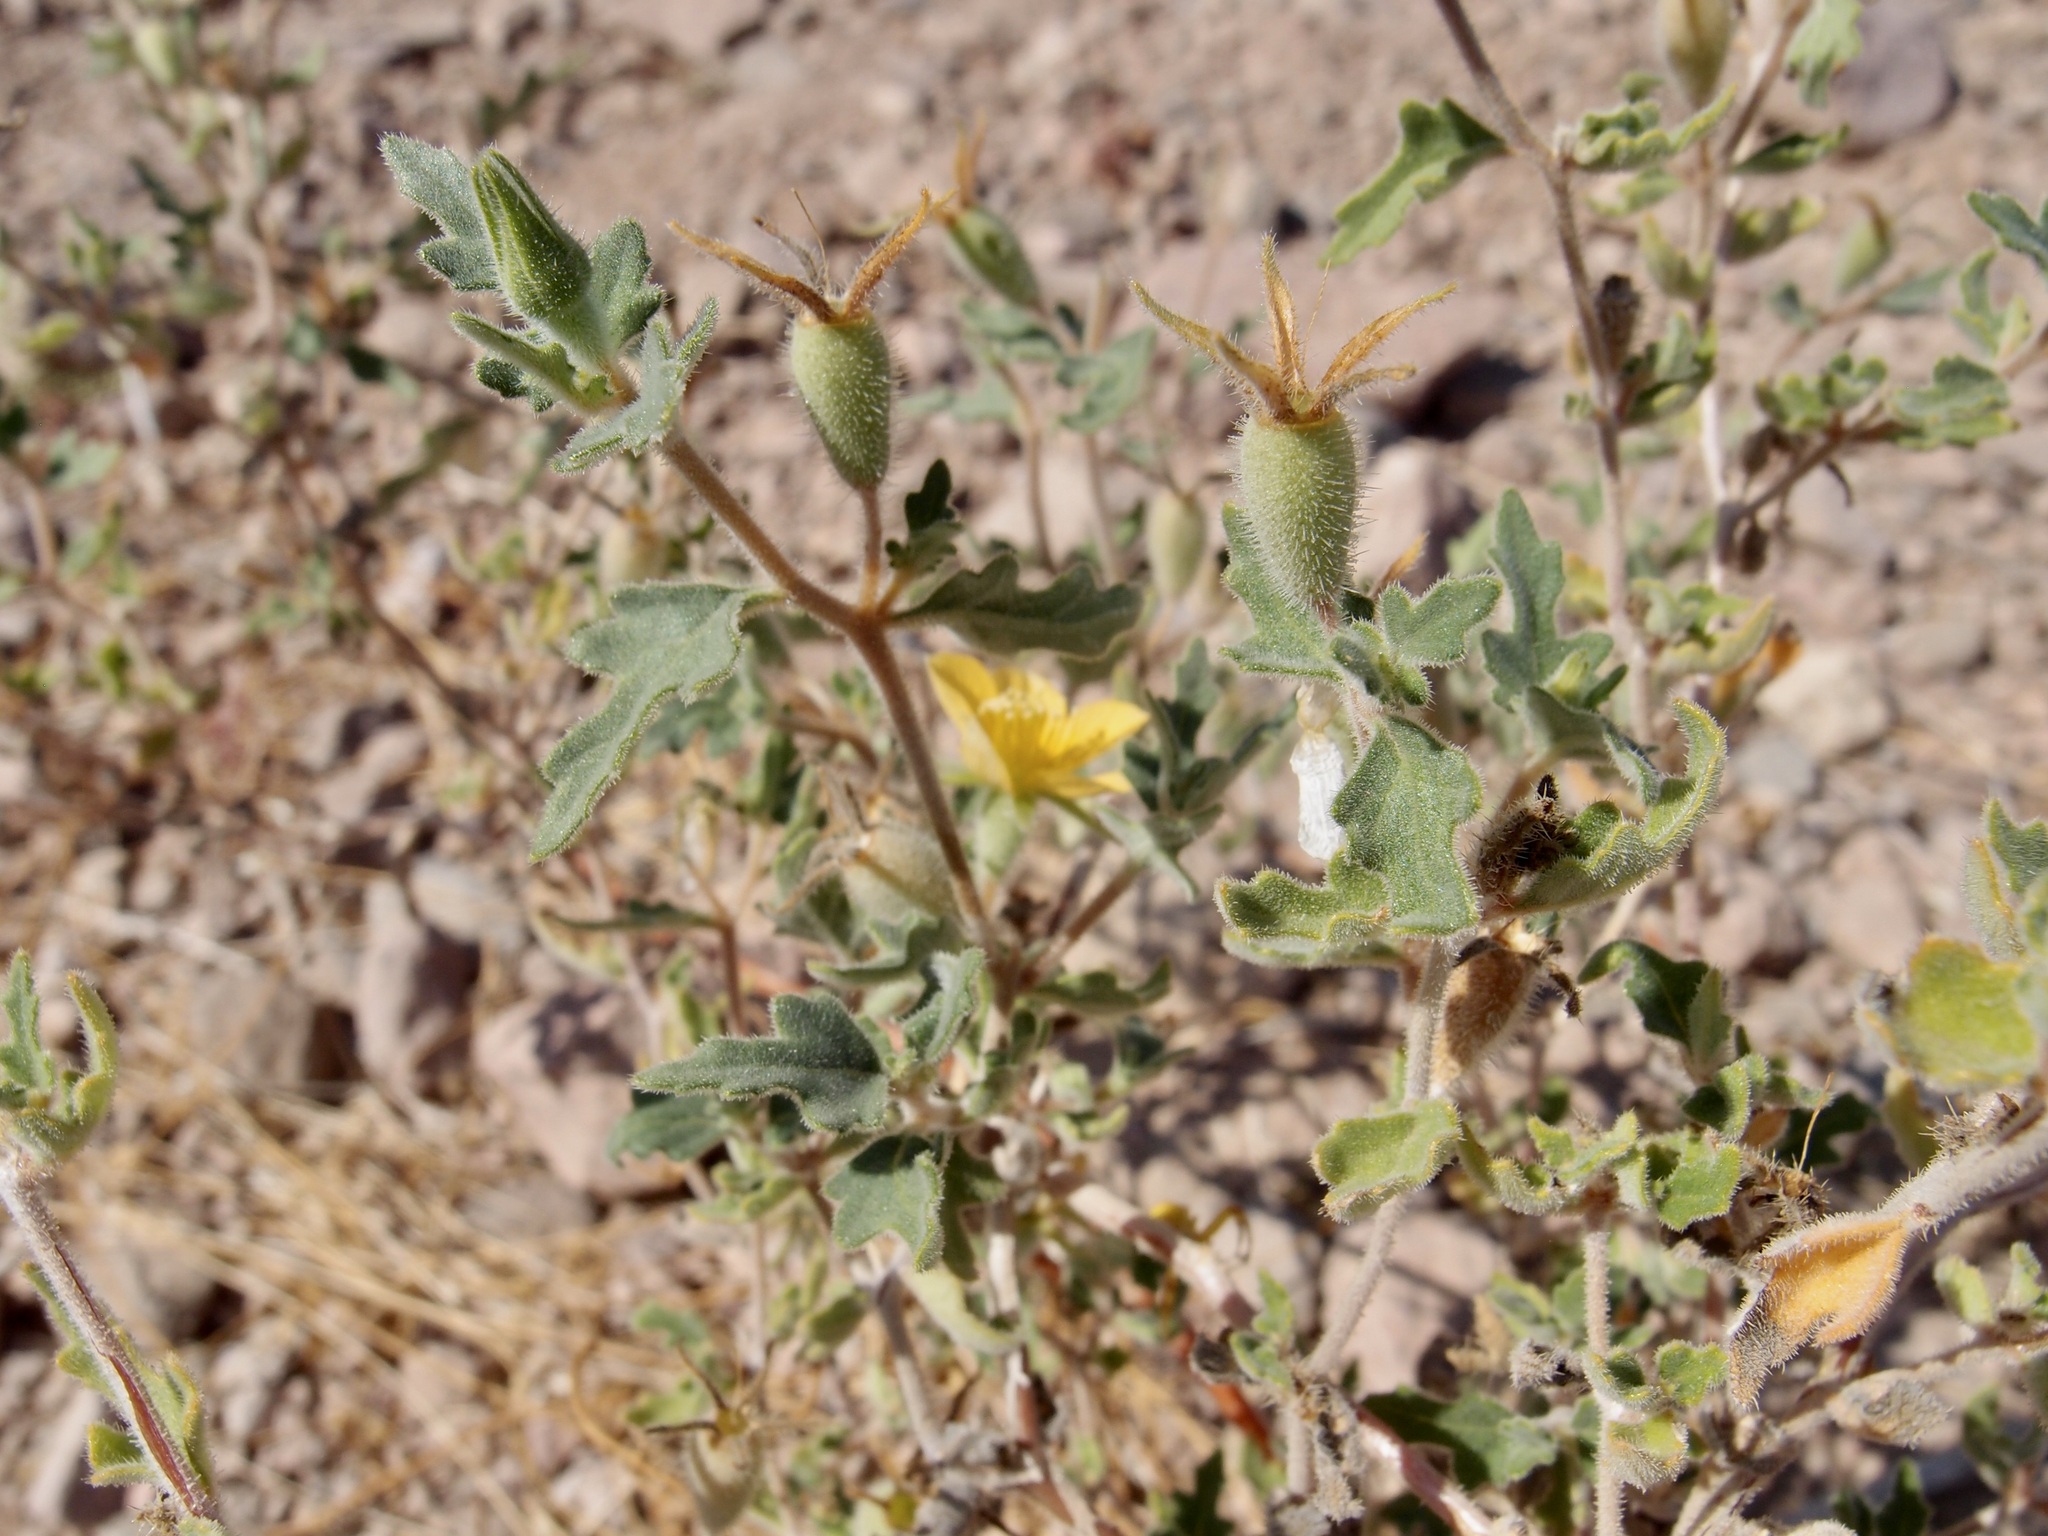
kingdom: Plantae
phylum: Tracheophyta
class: Magnoliopsida
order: Cornales
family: Loasaceae
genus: Mentzelia
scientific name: Mentzelia adhaerens
